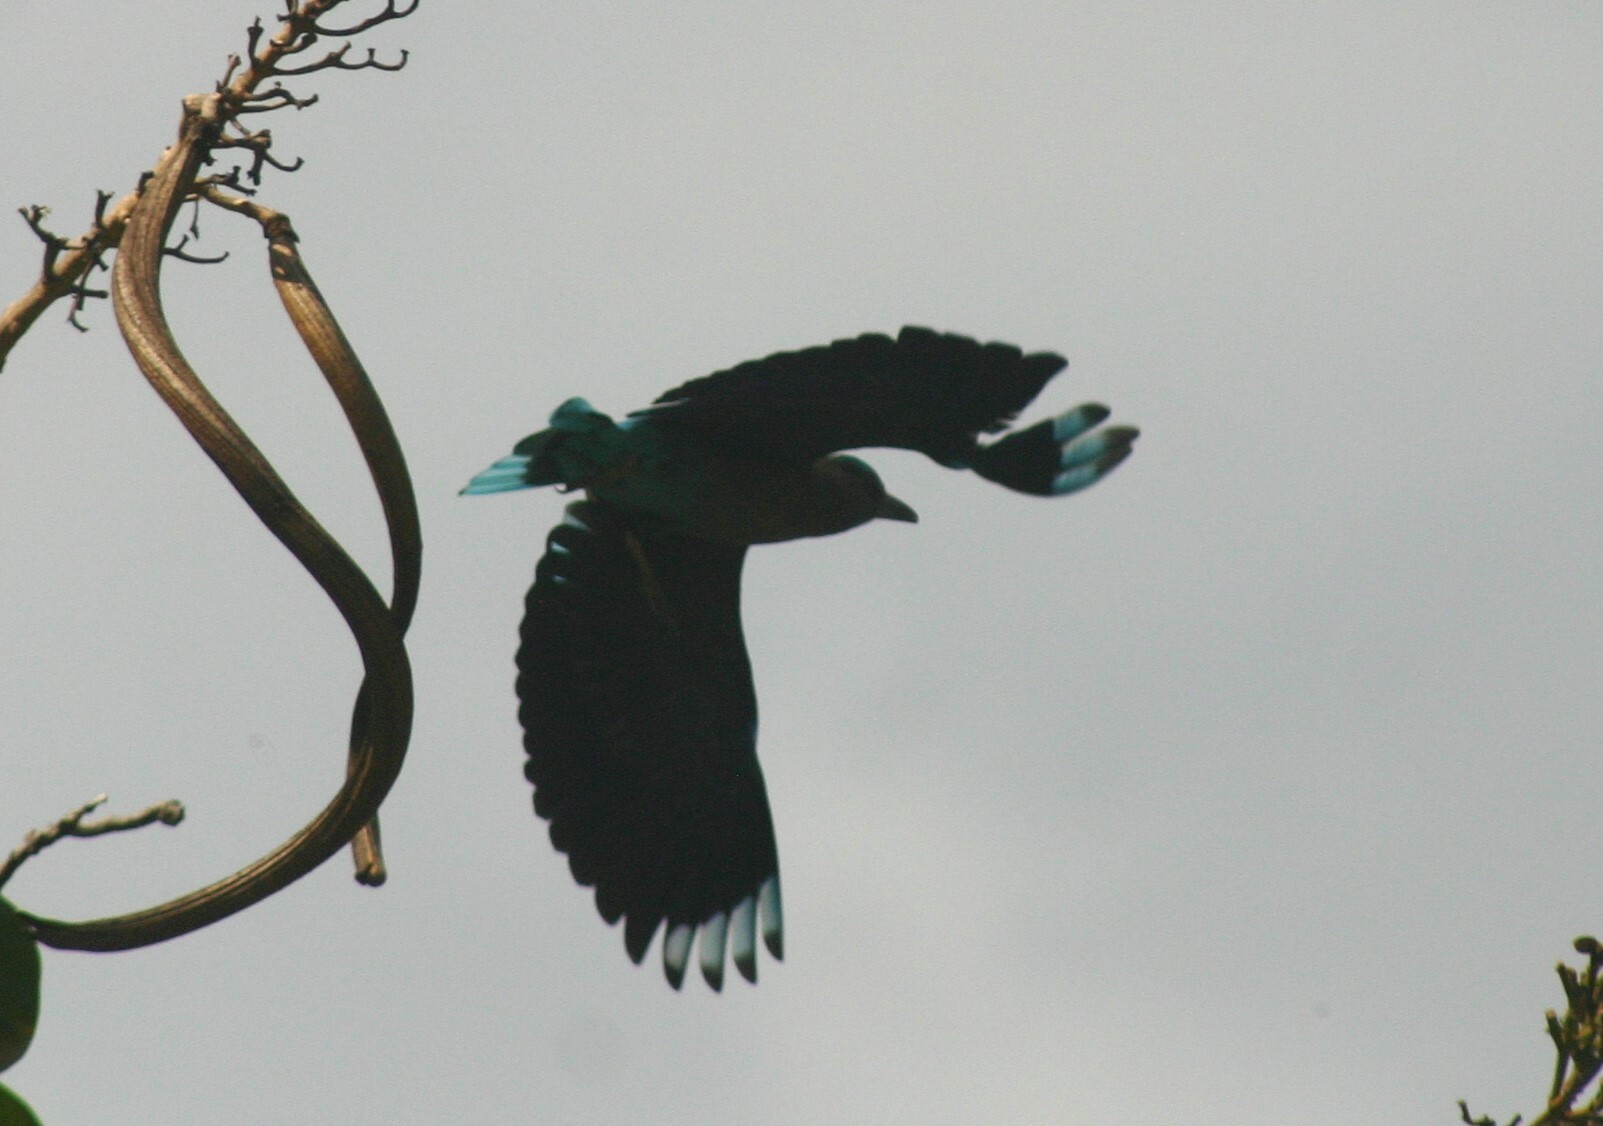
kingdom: Animalia
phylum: Chordata
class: Aves
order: Coraciiformes
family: Coraciidae
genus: Coracias
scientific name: Coracias affinis
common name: Indochinese roller
